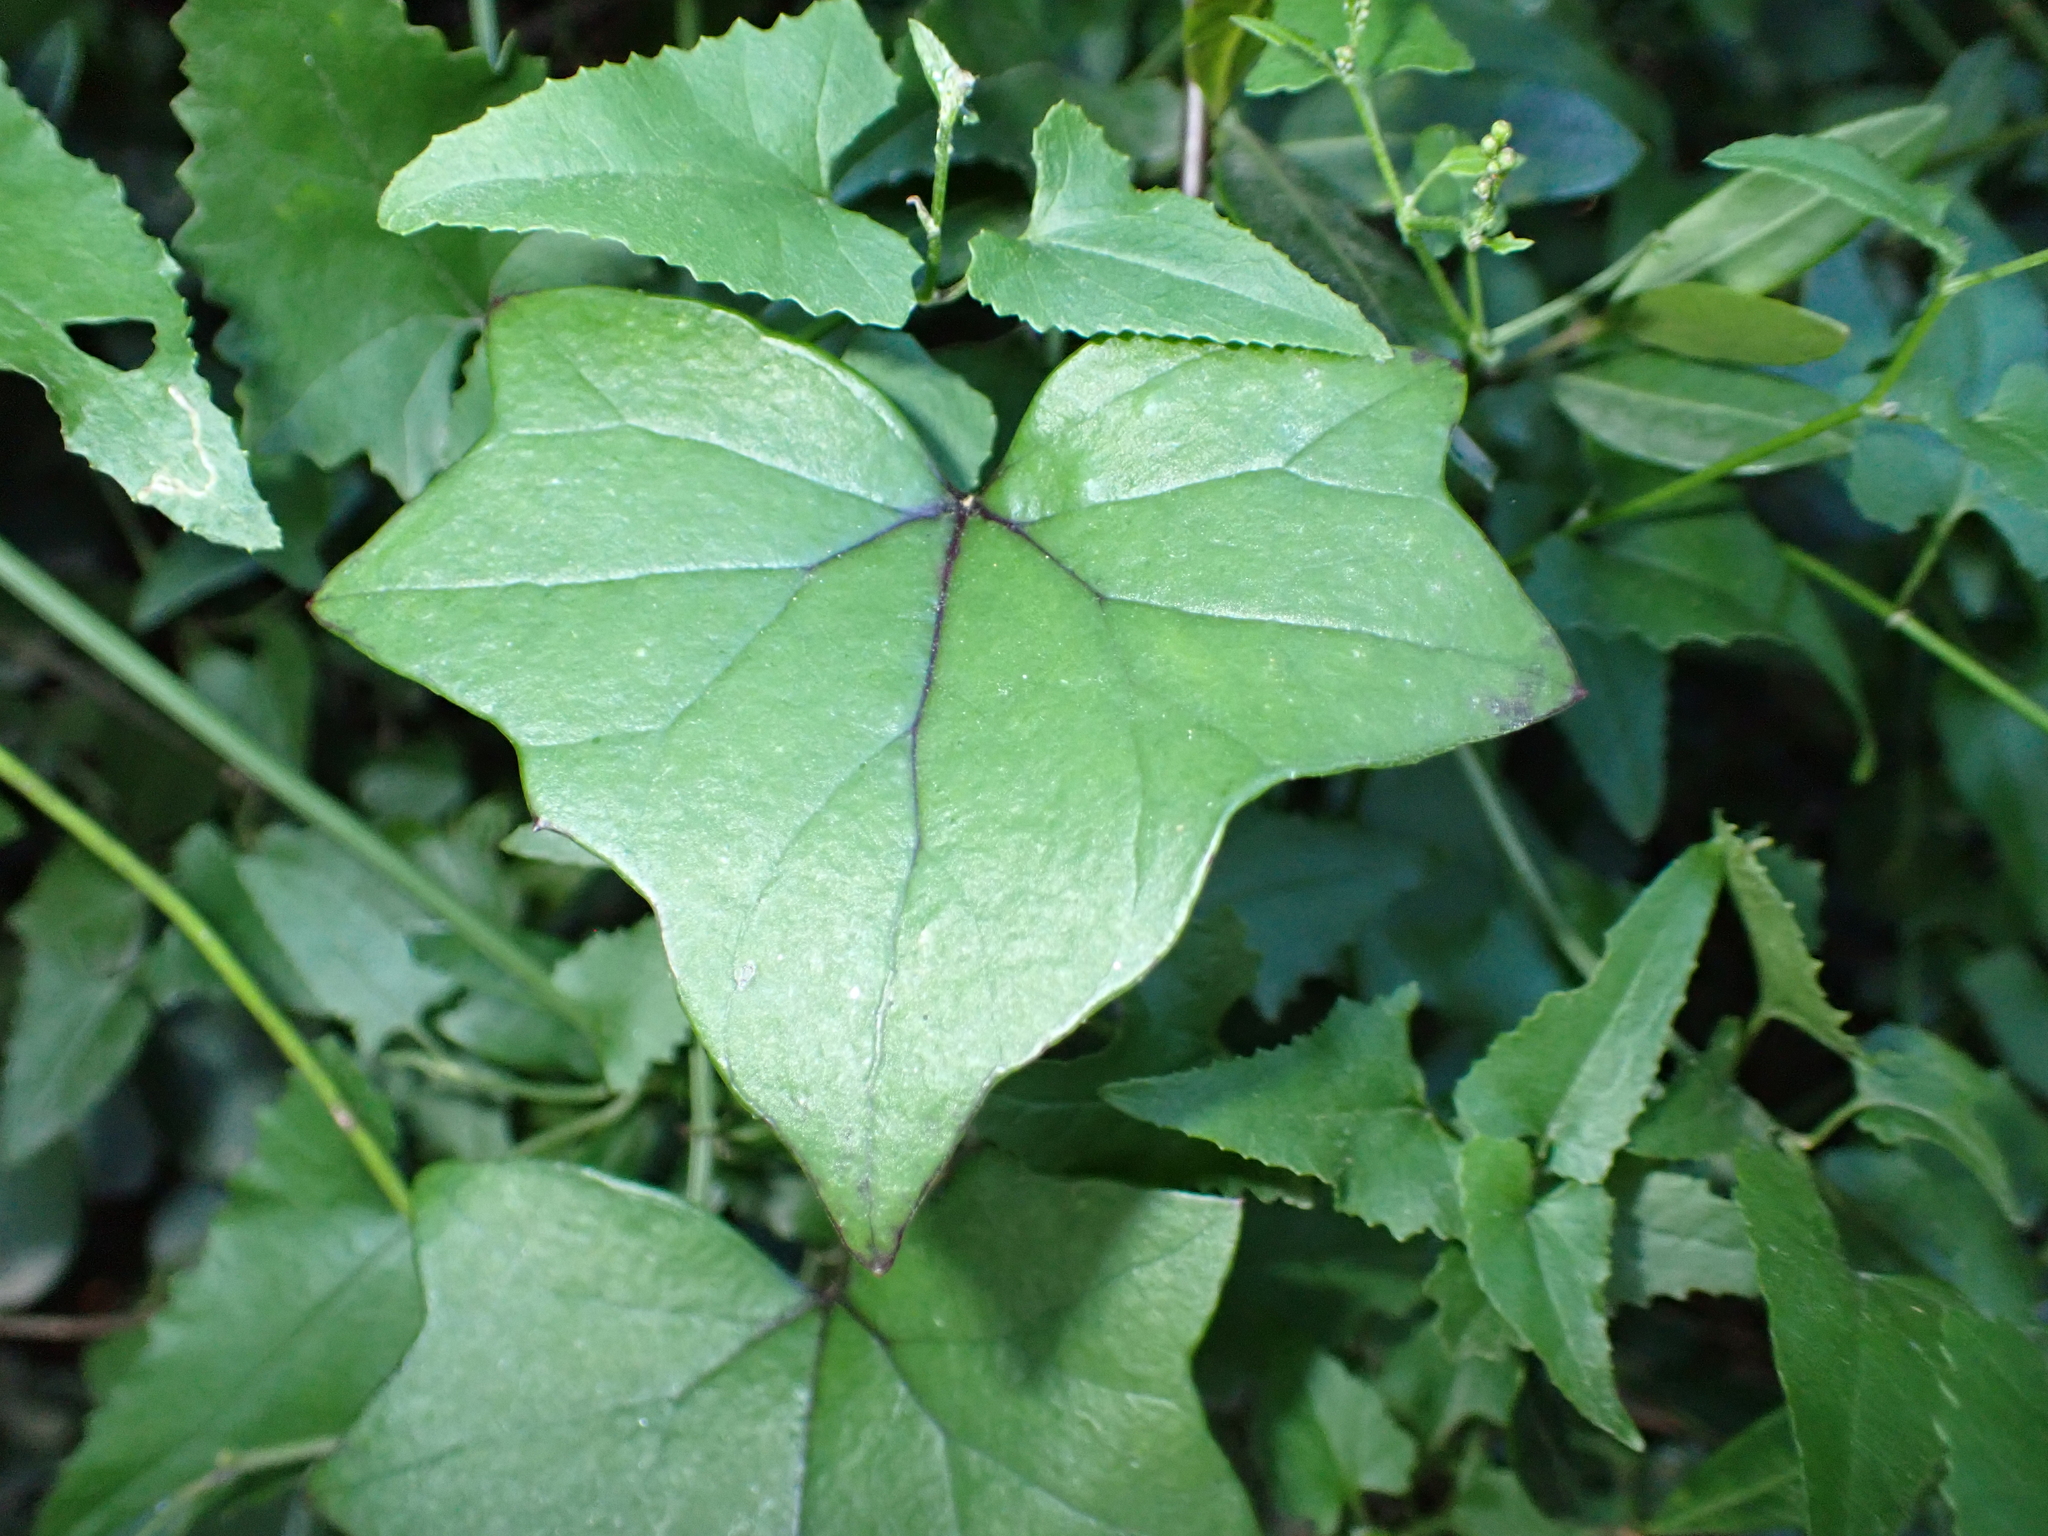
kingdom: Plantae
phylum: Tracheophyta
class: Magnoliopsida
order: Asterales
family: Asteraceae
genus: Senecio
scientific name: Senecio tamoides
